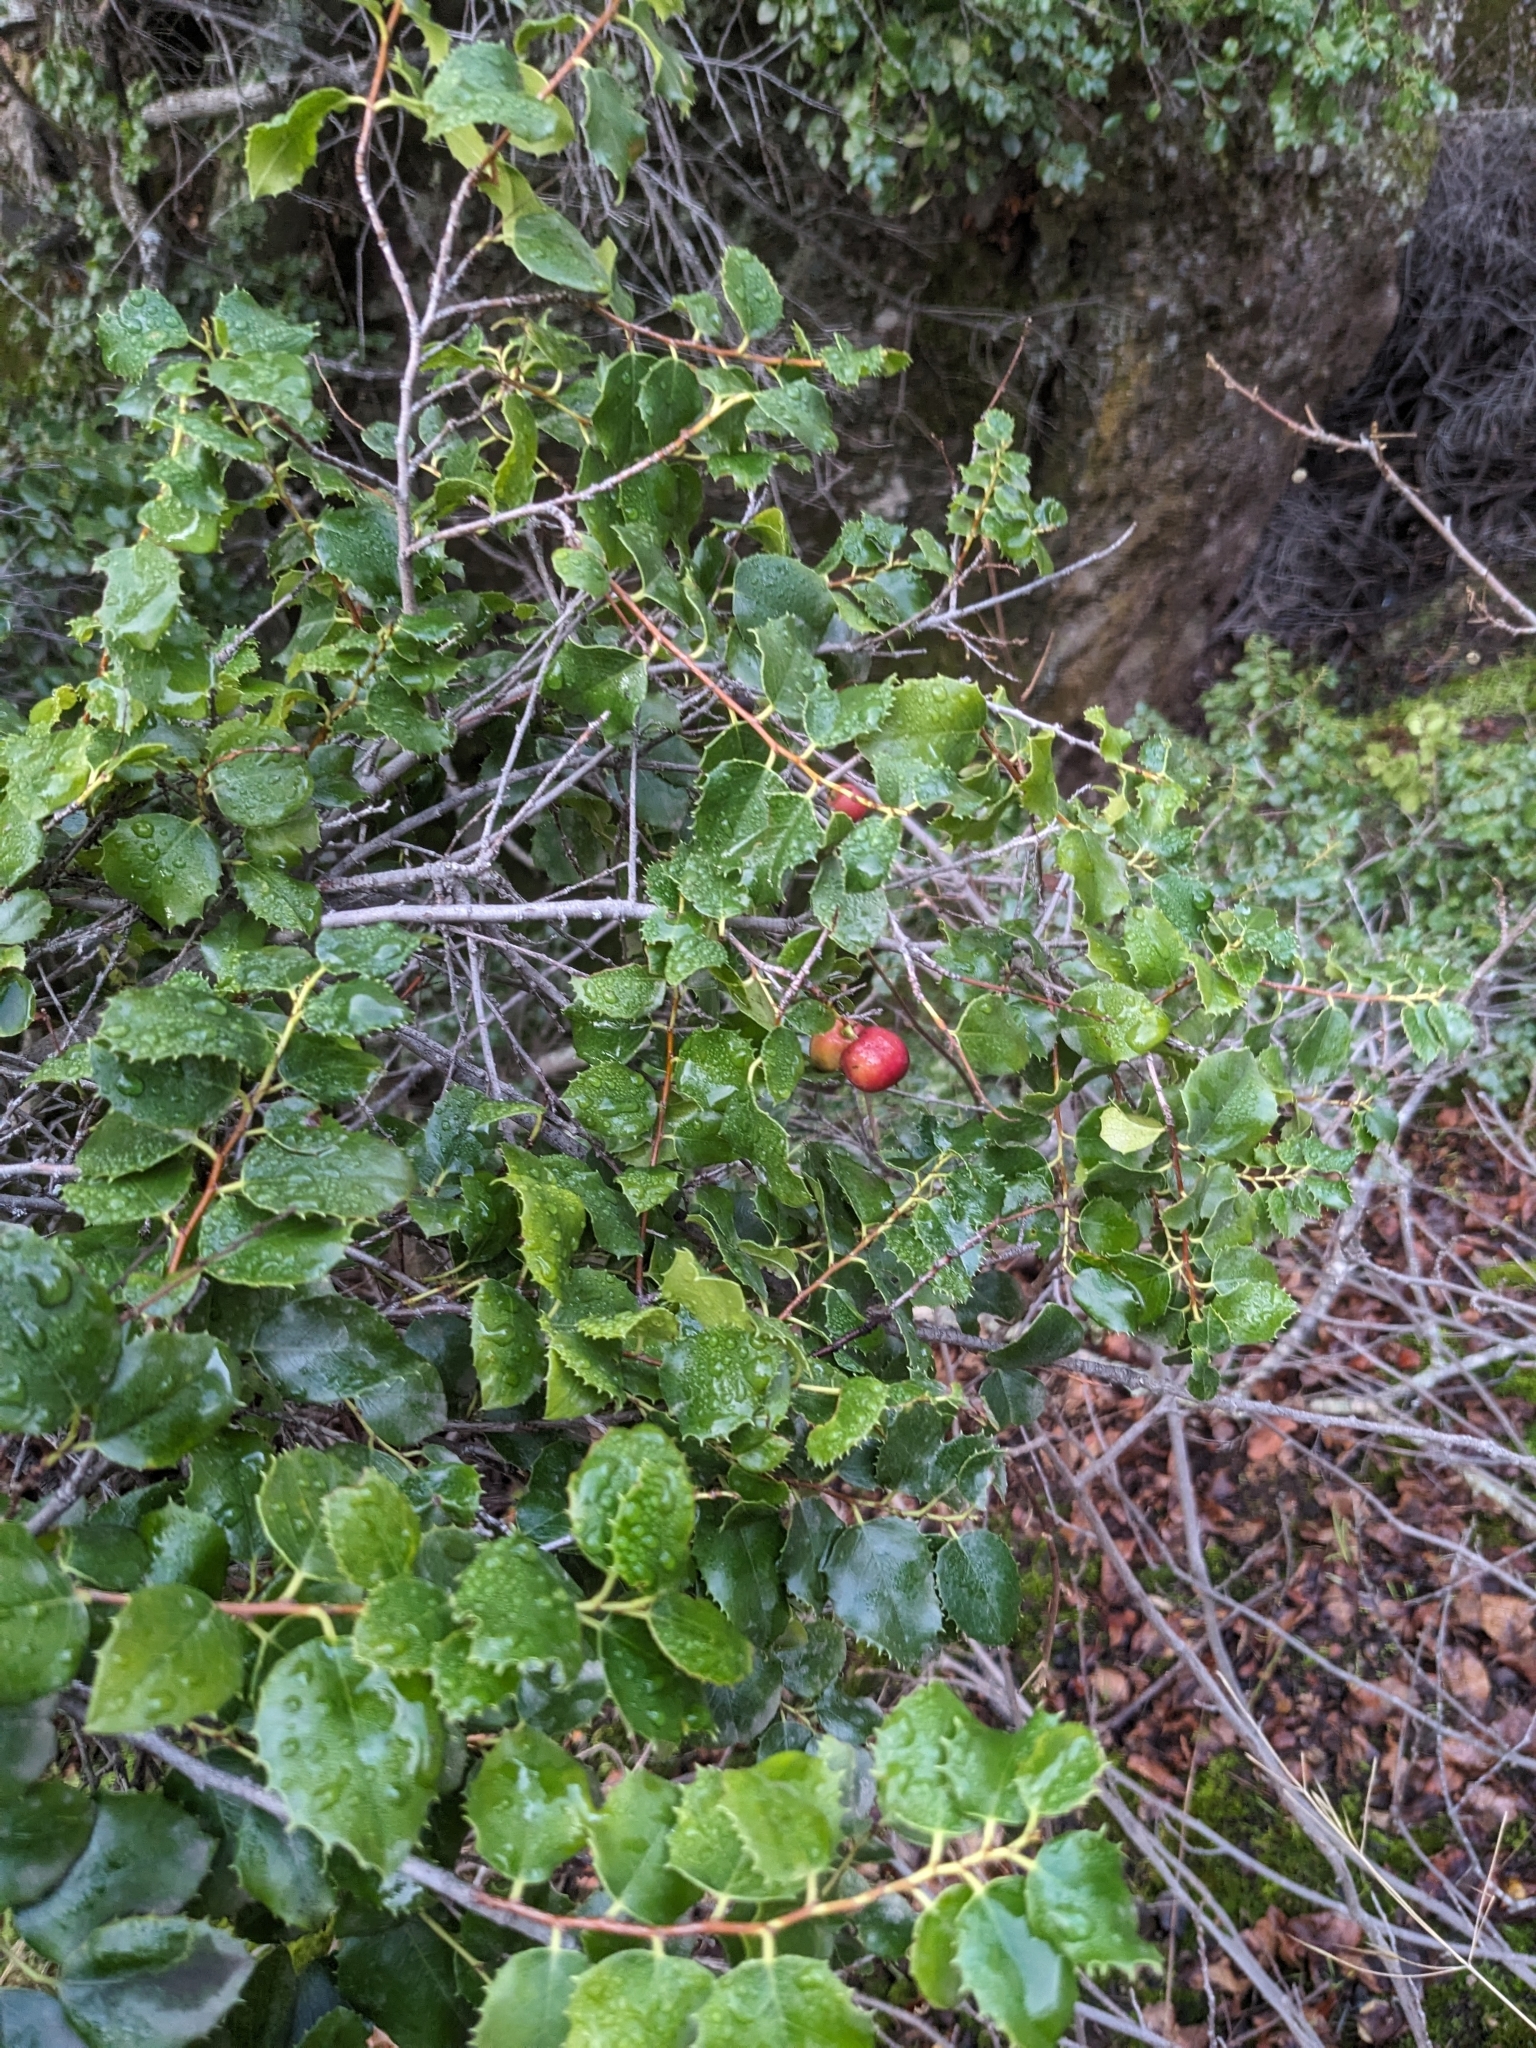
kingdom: Plantae
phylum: Tracheophyta
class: Magnoliopsida
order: Rosales
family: Rosaceae
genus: Prunus
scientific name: Prunus ilicifolia
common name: Hollyleaf cherry
